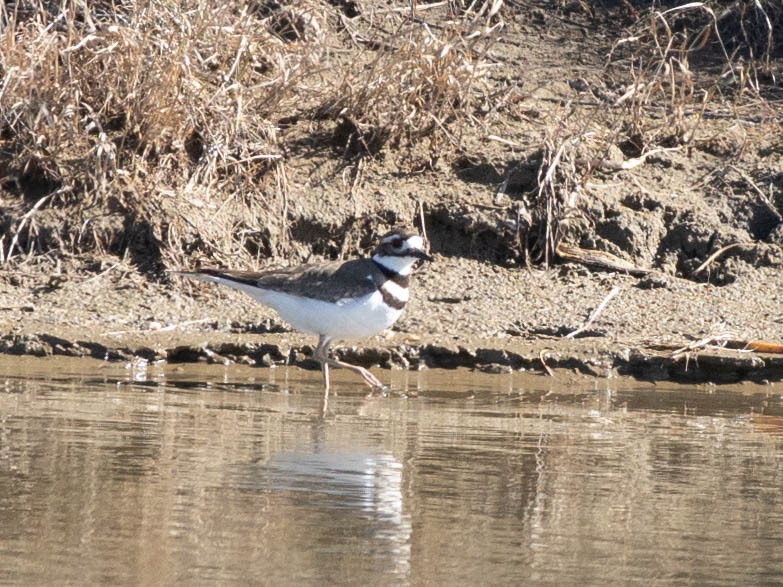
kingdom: Animalia
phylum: Chordata
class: Aves
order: Charadriiformes
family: Charadriidae
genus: Charadrius
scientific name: Charadrius vociferus
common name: Killdeer
